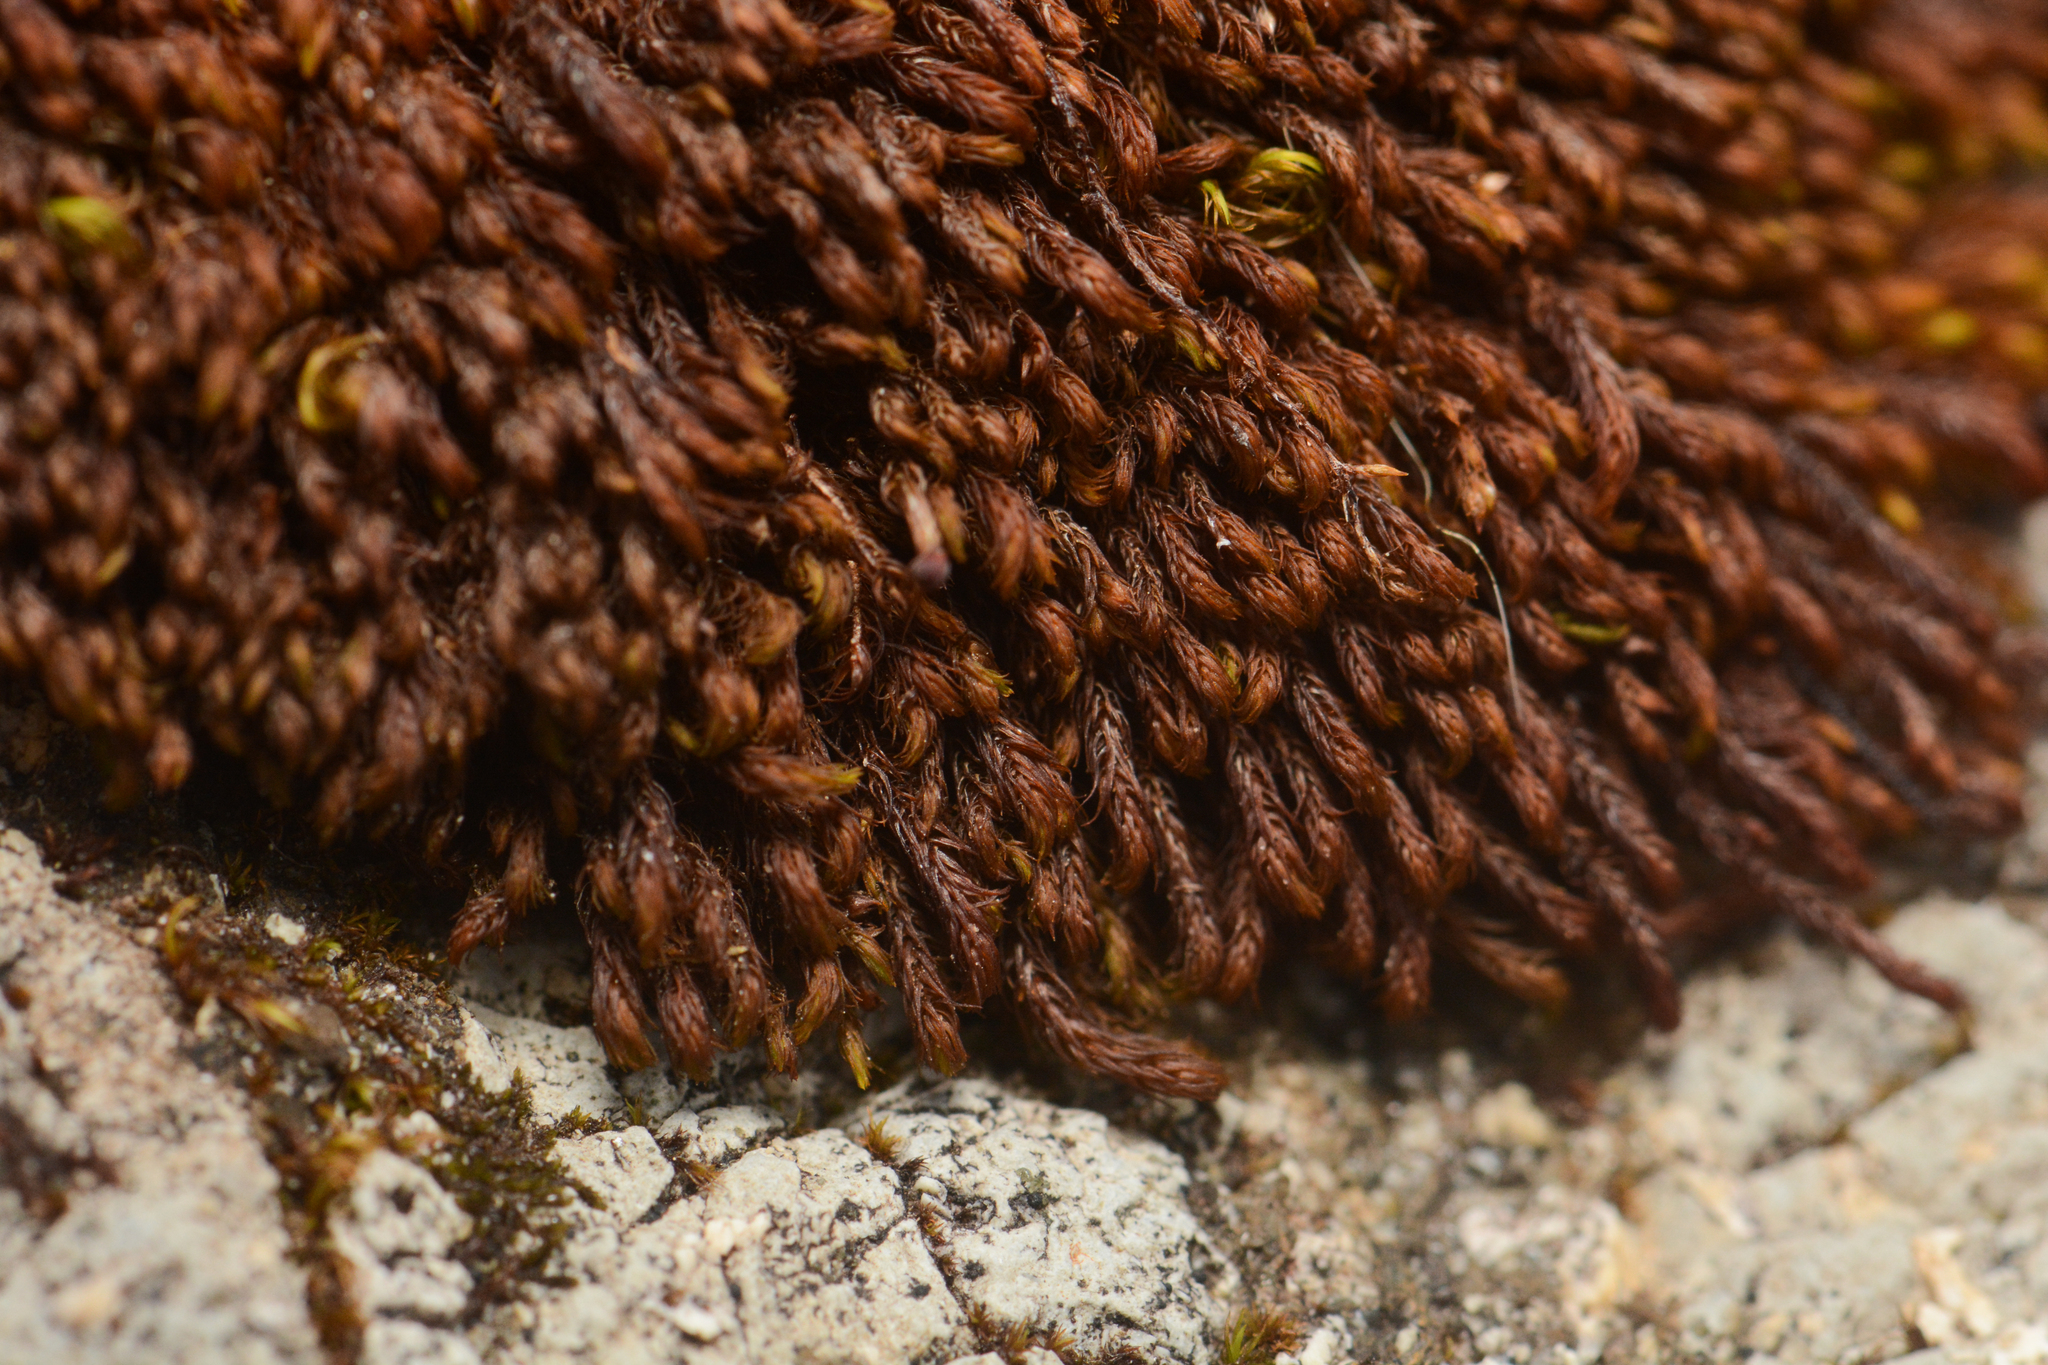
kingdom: Plantae
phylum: Bryophyta
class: Andreaeopsida
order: Andreaeales
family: Andreaeaceae
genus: Andreaea
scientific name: Andreaea nivalis
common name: Snow rock moss
